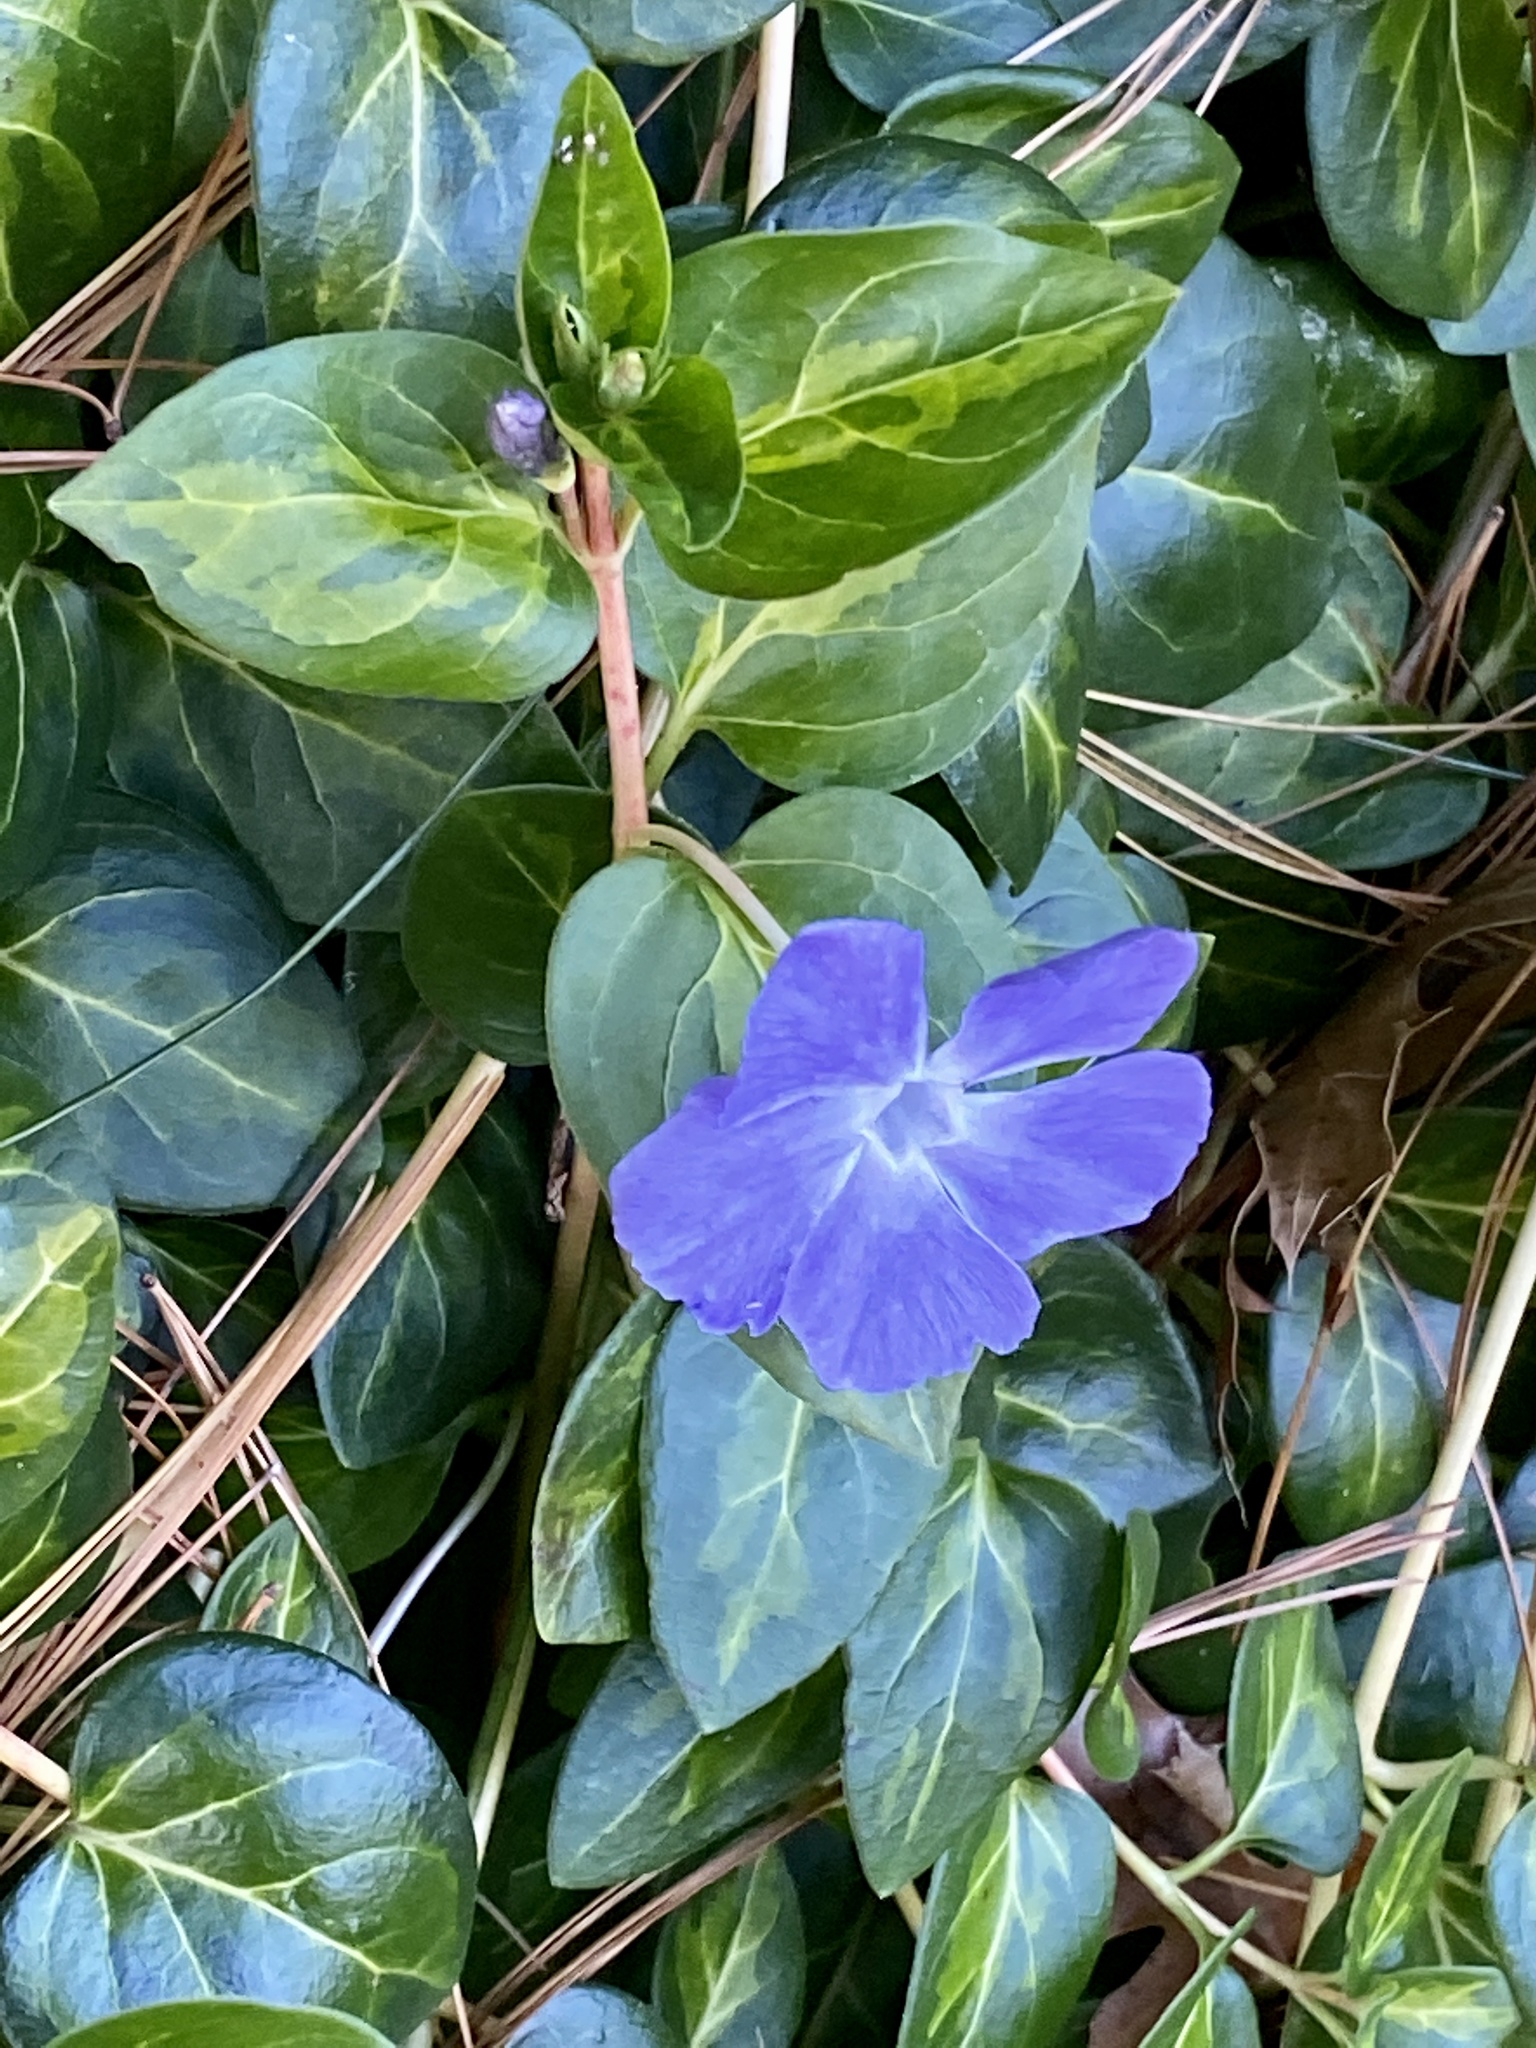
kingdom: Plantae
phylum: Tracheophyta
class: Magnoliopsida
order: Gentianales
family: Apocynaceae
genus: Vinca
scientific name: Vinca major
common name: Greater periwinkle
